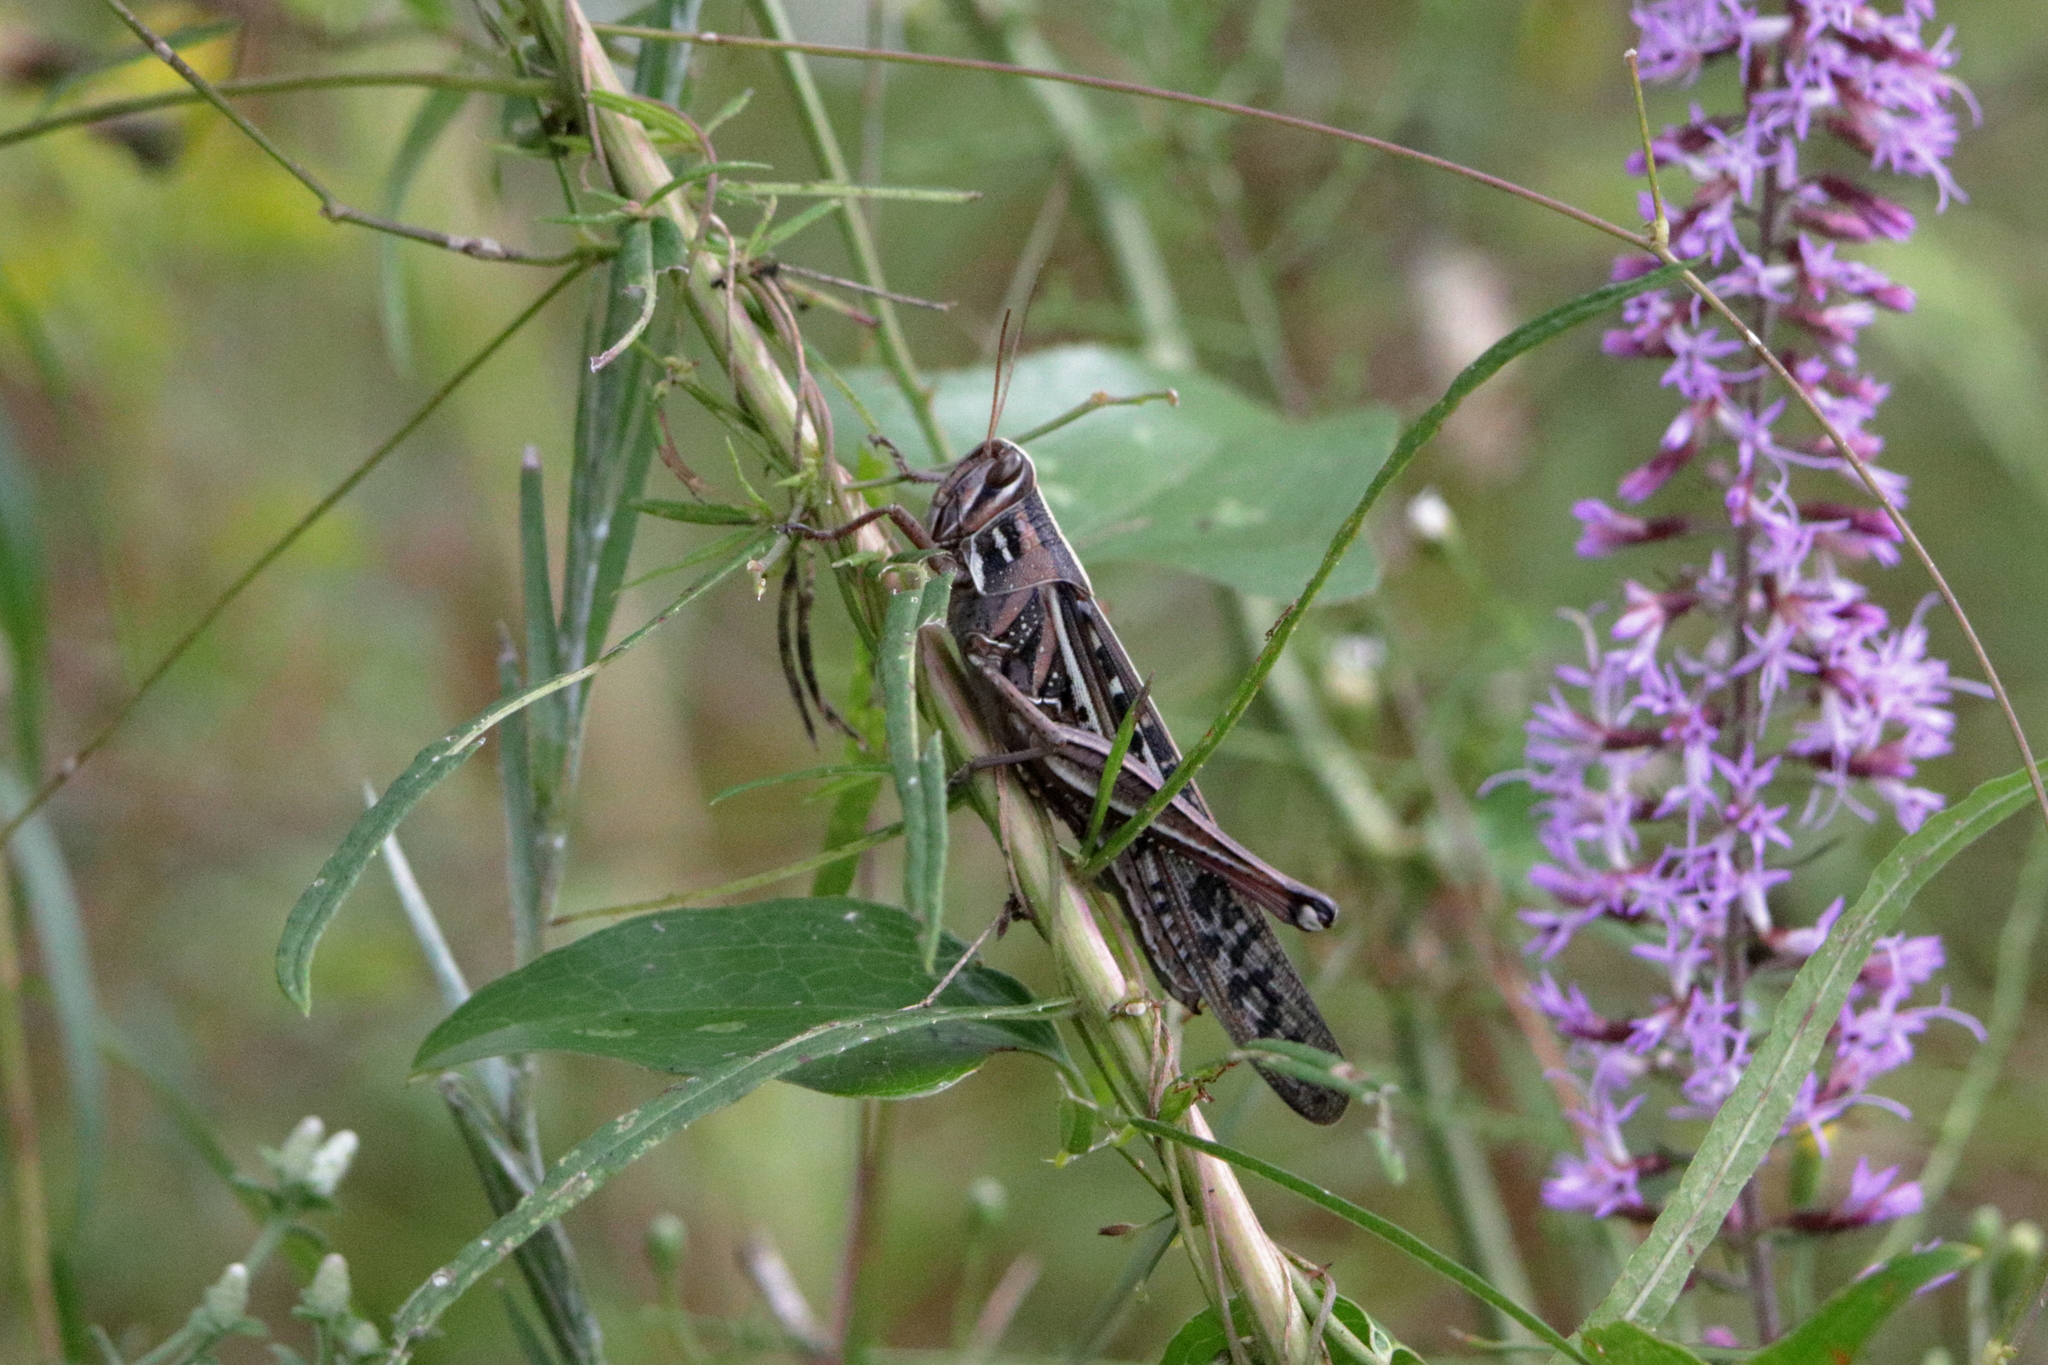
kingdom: Animalia
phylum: Arthropoda
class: Insecta
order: Orthoptera
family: Acrididae
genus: Schistocerca
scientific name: Schistocerca americana
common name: American bird locust
